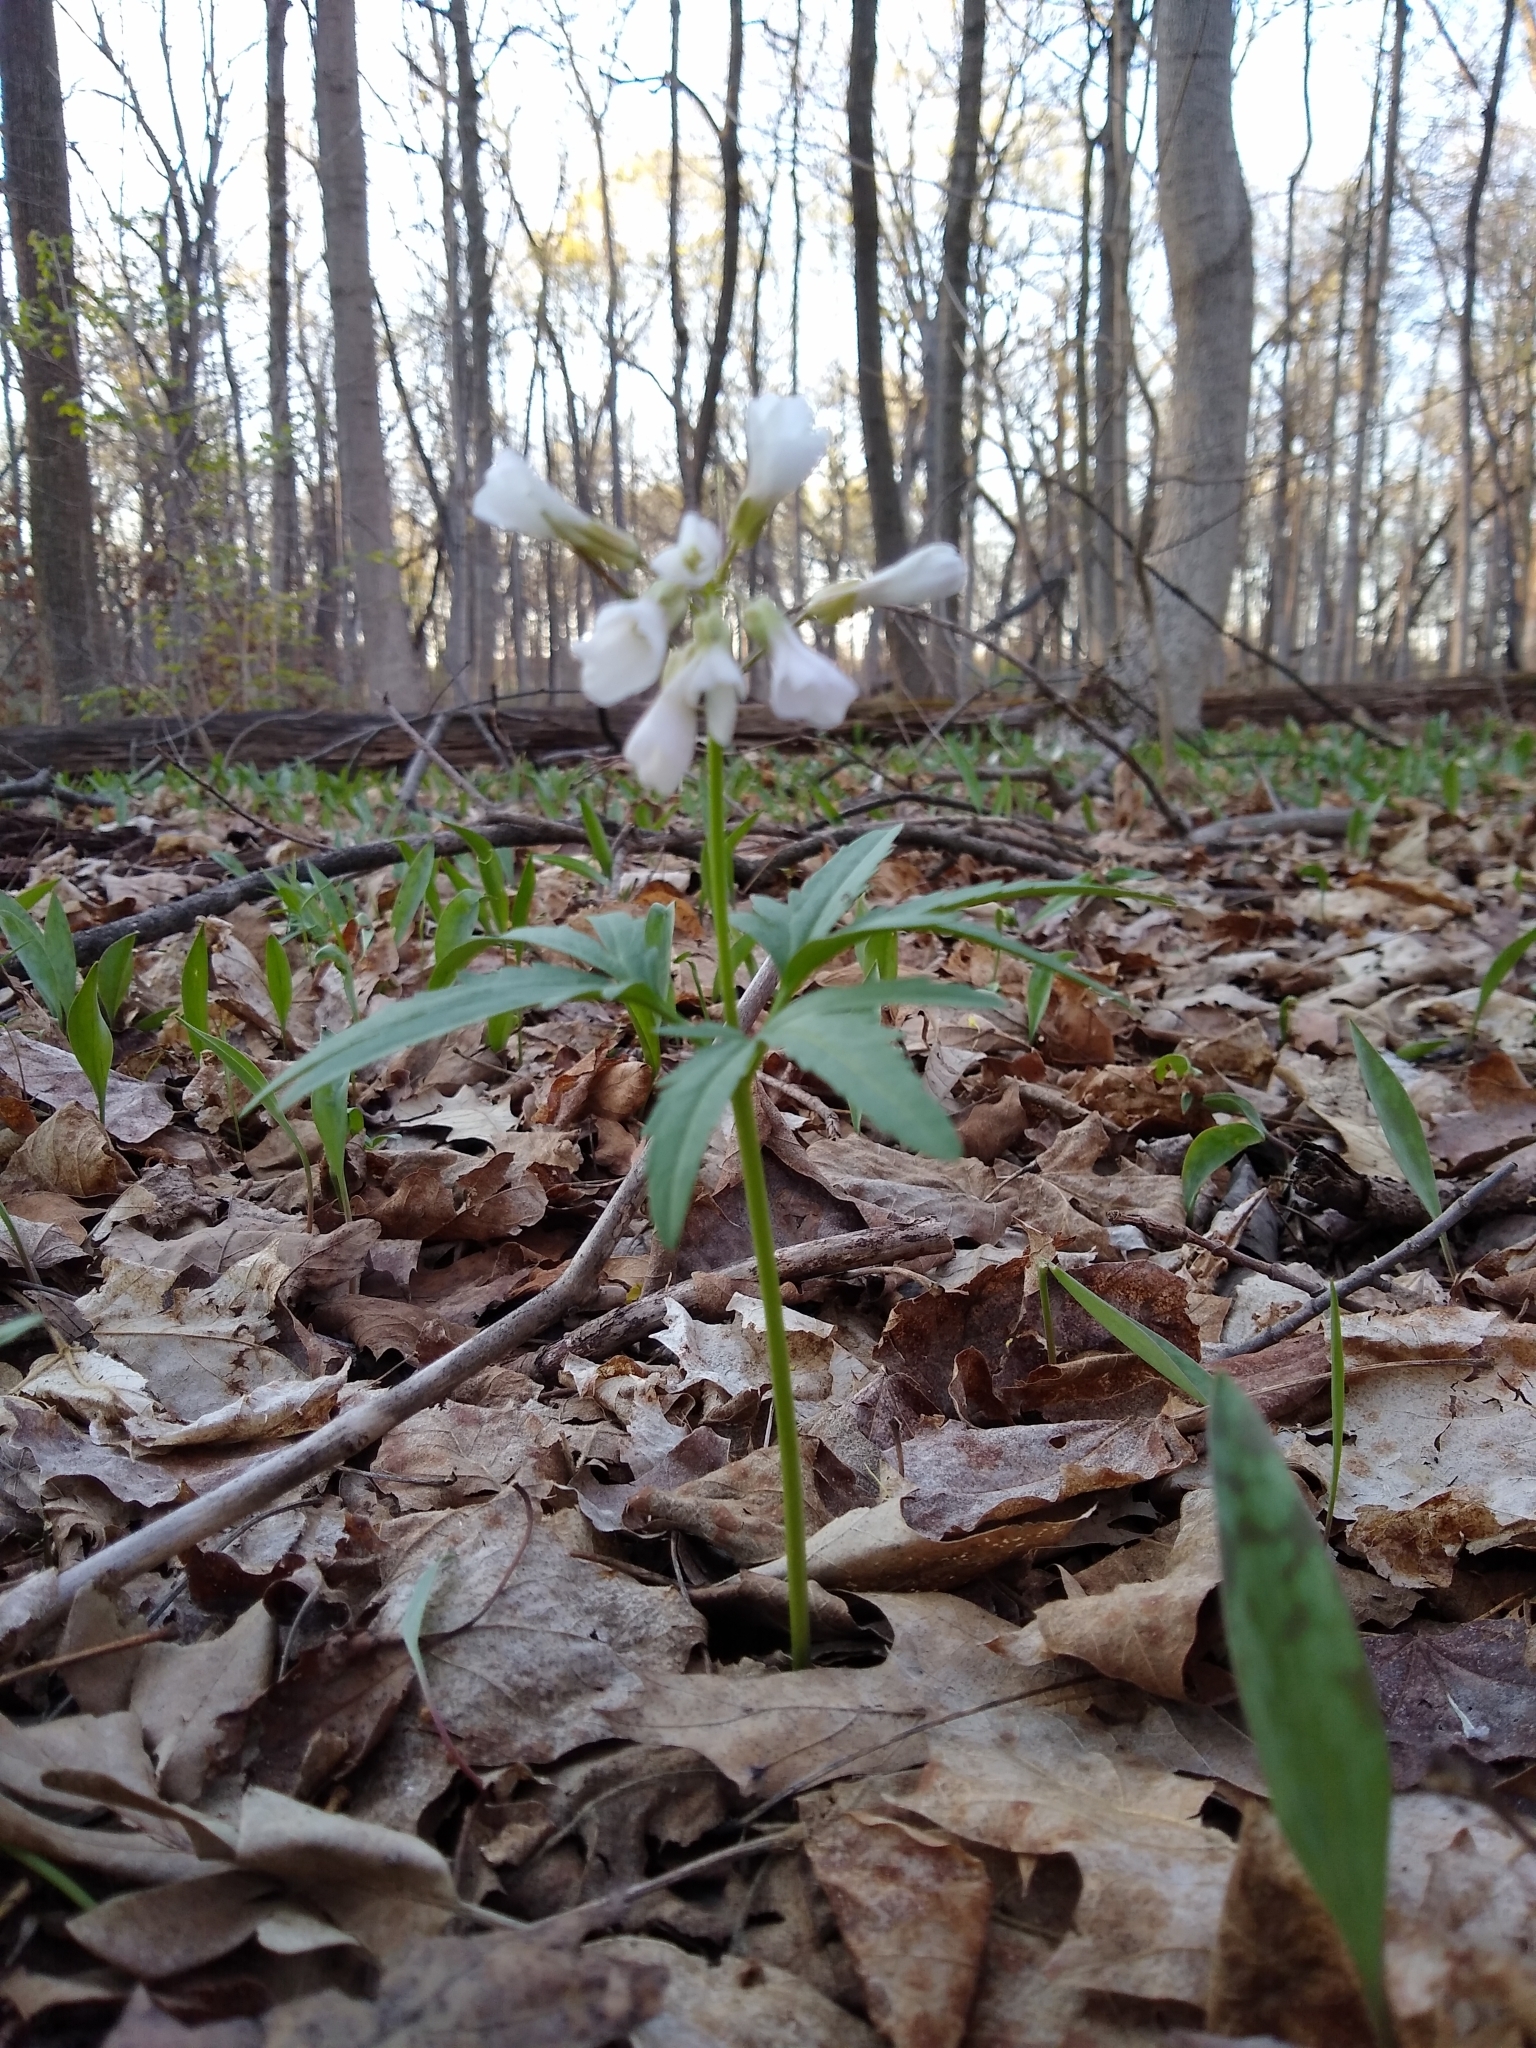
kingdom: Plantae
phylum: Tracheophyta
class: Magnoliopsida
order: Brassicales
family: Brassicaceae
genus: Cardamine
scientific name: Cardamine concatenata
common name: Cut-leaf toothcup
